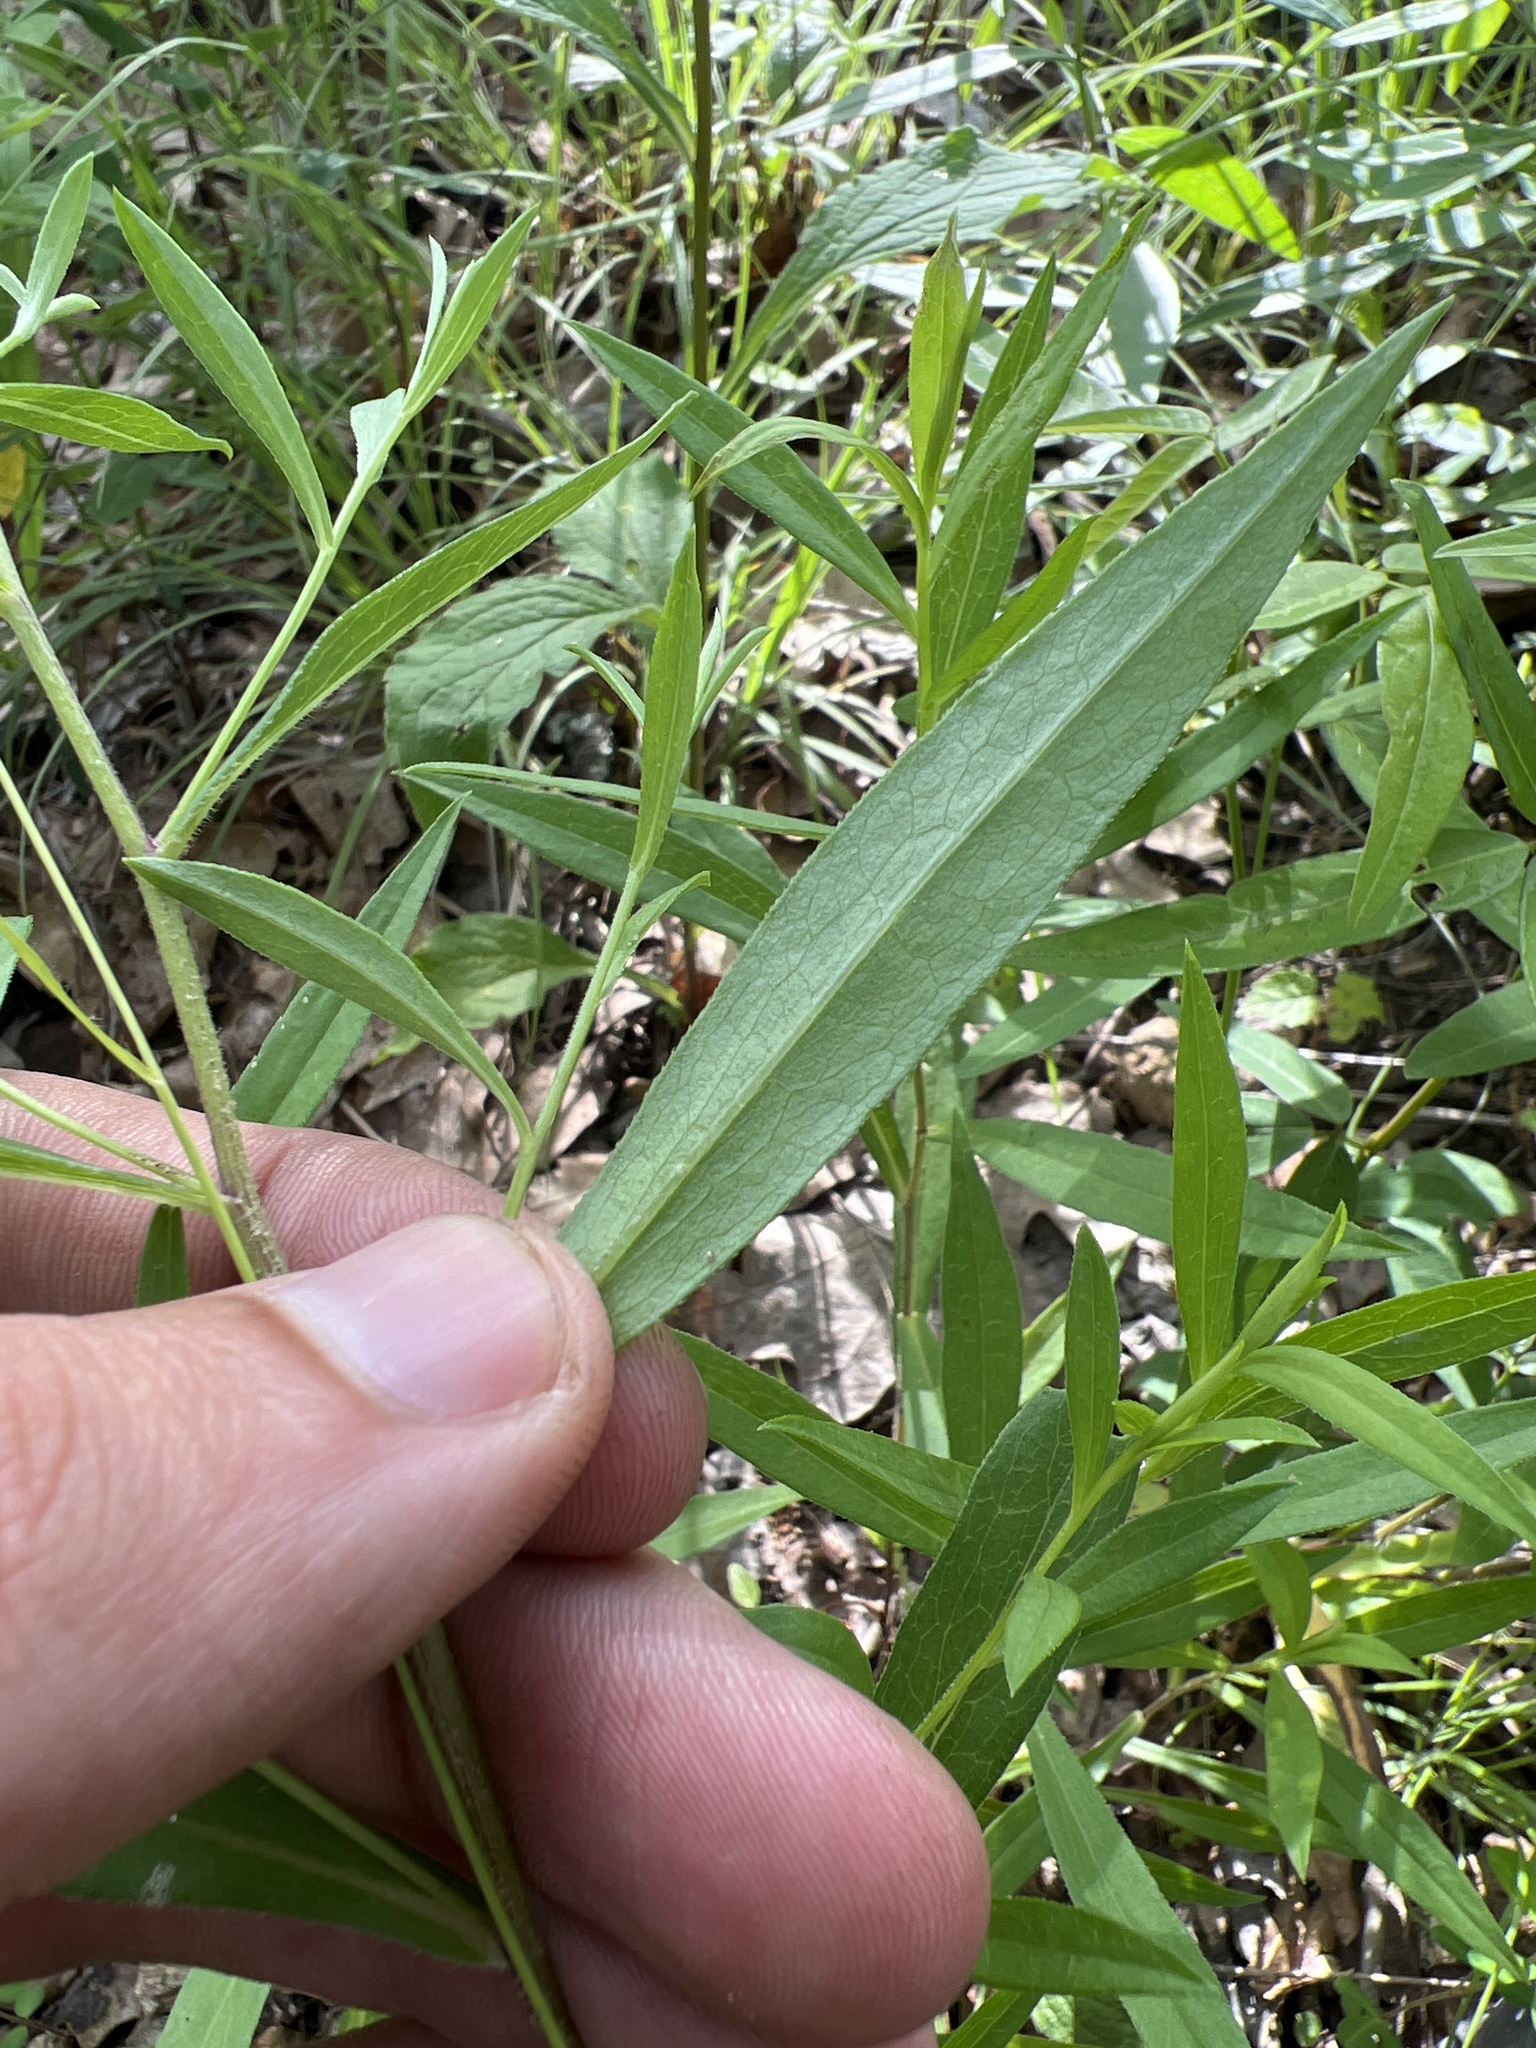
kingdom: Plantae
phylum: Tracheophyta
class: Magnoliopsida
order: Asterales
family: Asteraceae
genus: Symphyotrichum
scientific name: Symphyotrichum turbinellum
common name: Prairie aster
